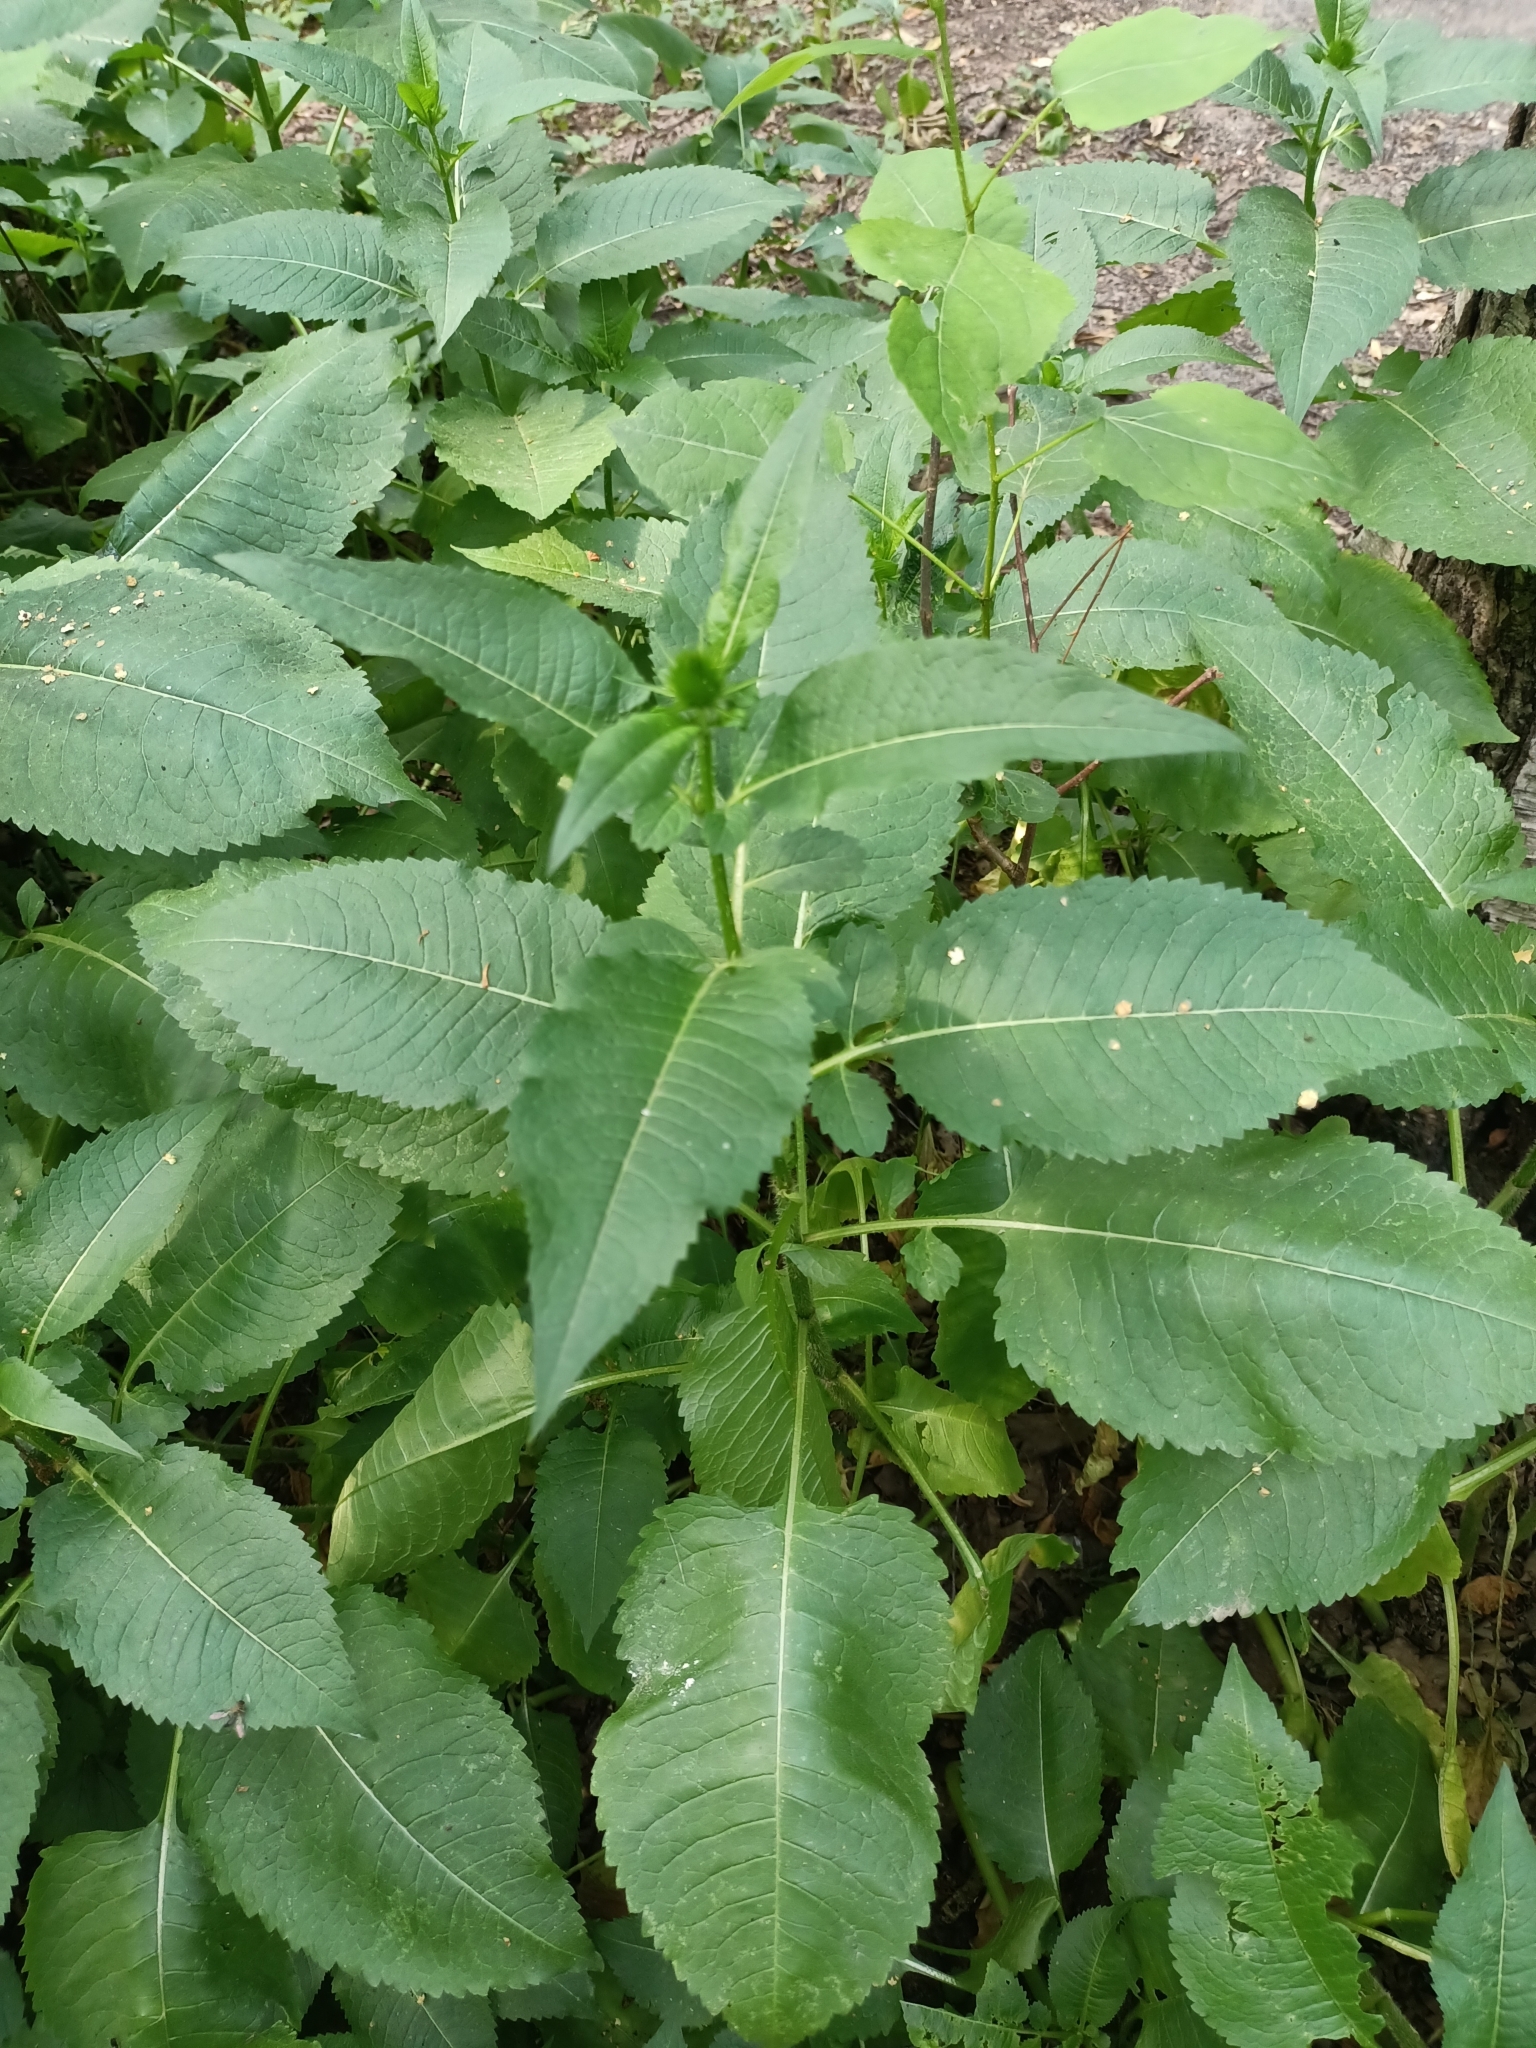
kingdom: Plantae
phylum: Tracheophyta
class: Magnoliopsida
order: Dipsacales
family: Caprifoliaceae
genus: Dipsacus
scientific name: Dipsacus strigosus
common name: Yellow-flowered teasel
